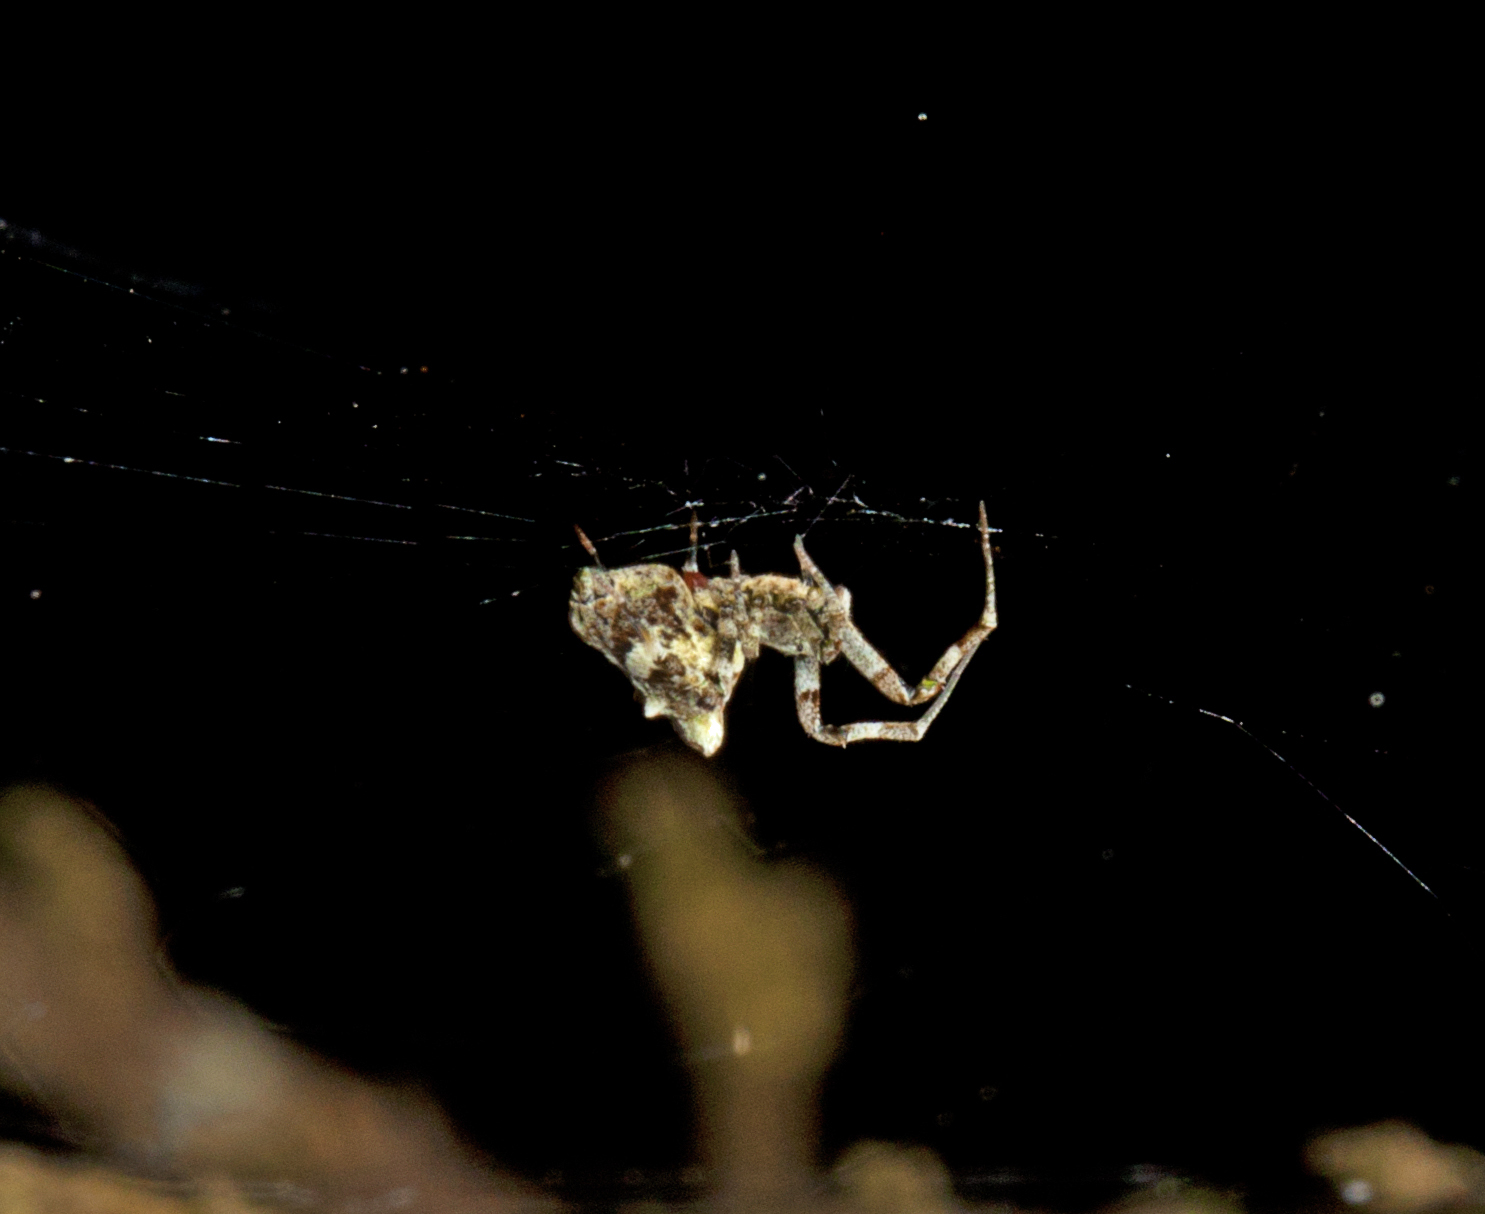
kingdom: Animalia
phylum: Arthropoda
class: Arachnida
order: Araneae
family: Uloboridae
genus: Philoponella
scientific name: Philoponella congregabilis
